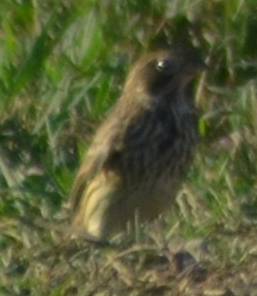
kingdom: Animalia
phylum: Chordata
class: Aves
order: Passeriformes
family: Emberizidae
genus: Emberiza
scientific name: Emberiza calandra
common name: Corn bunting
